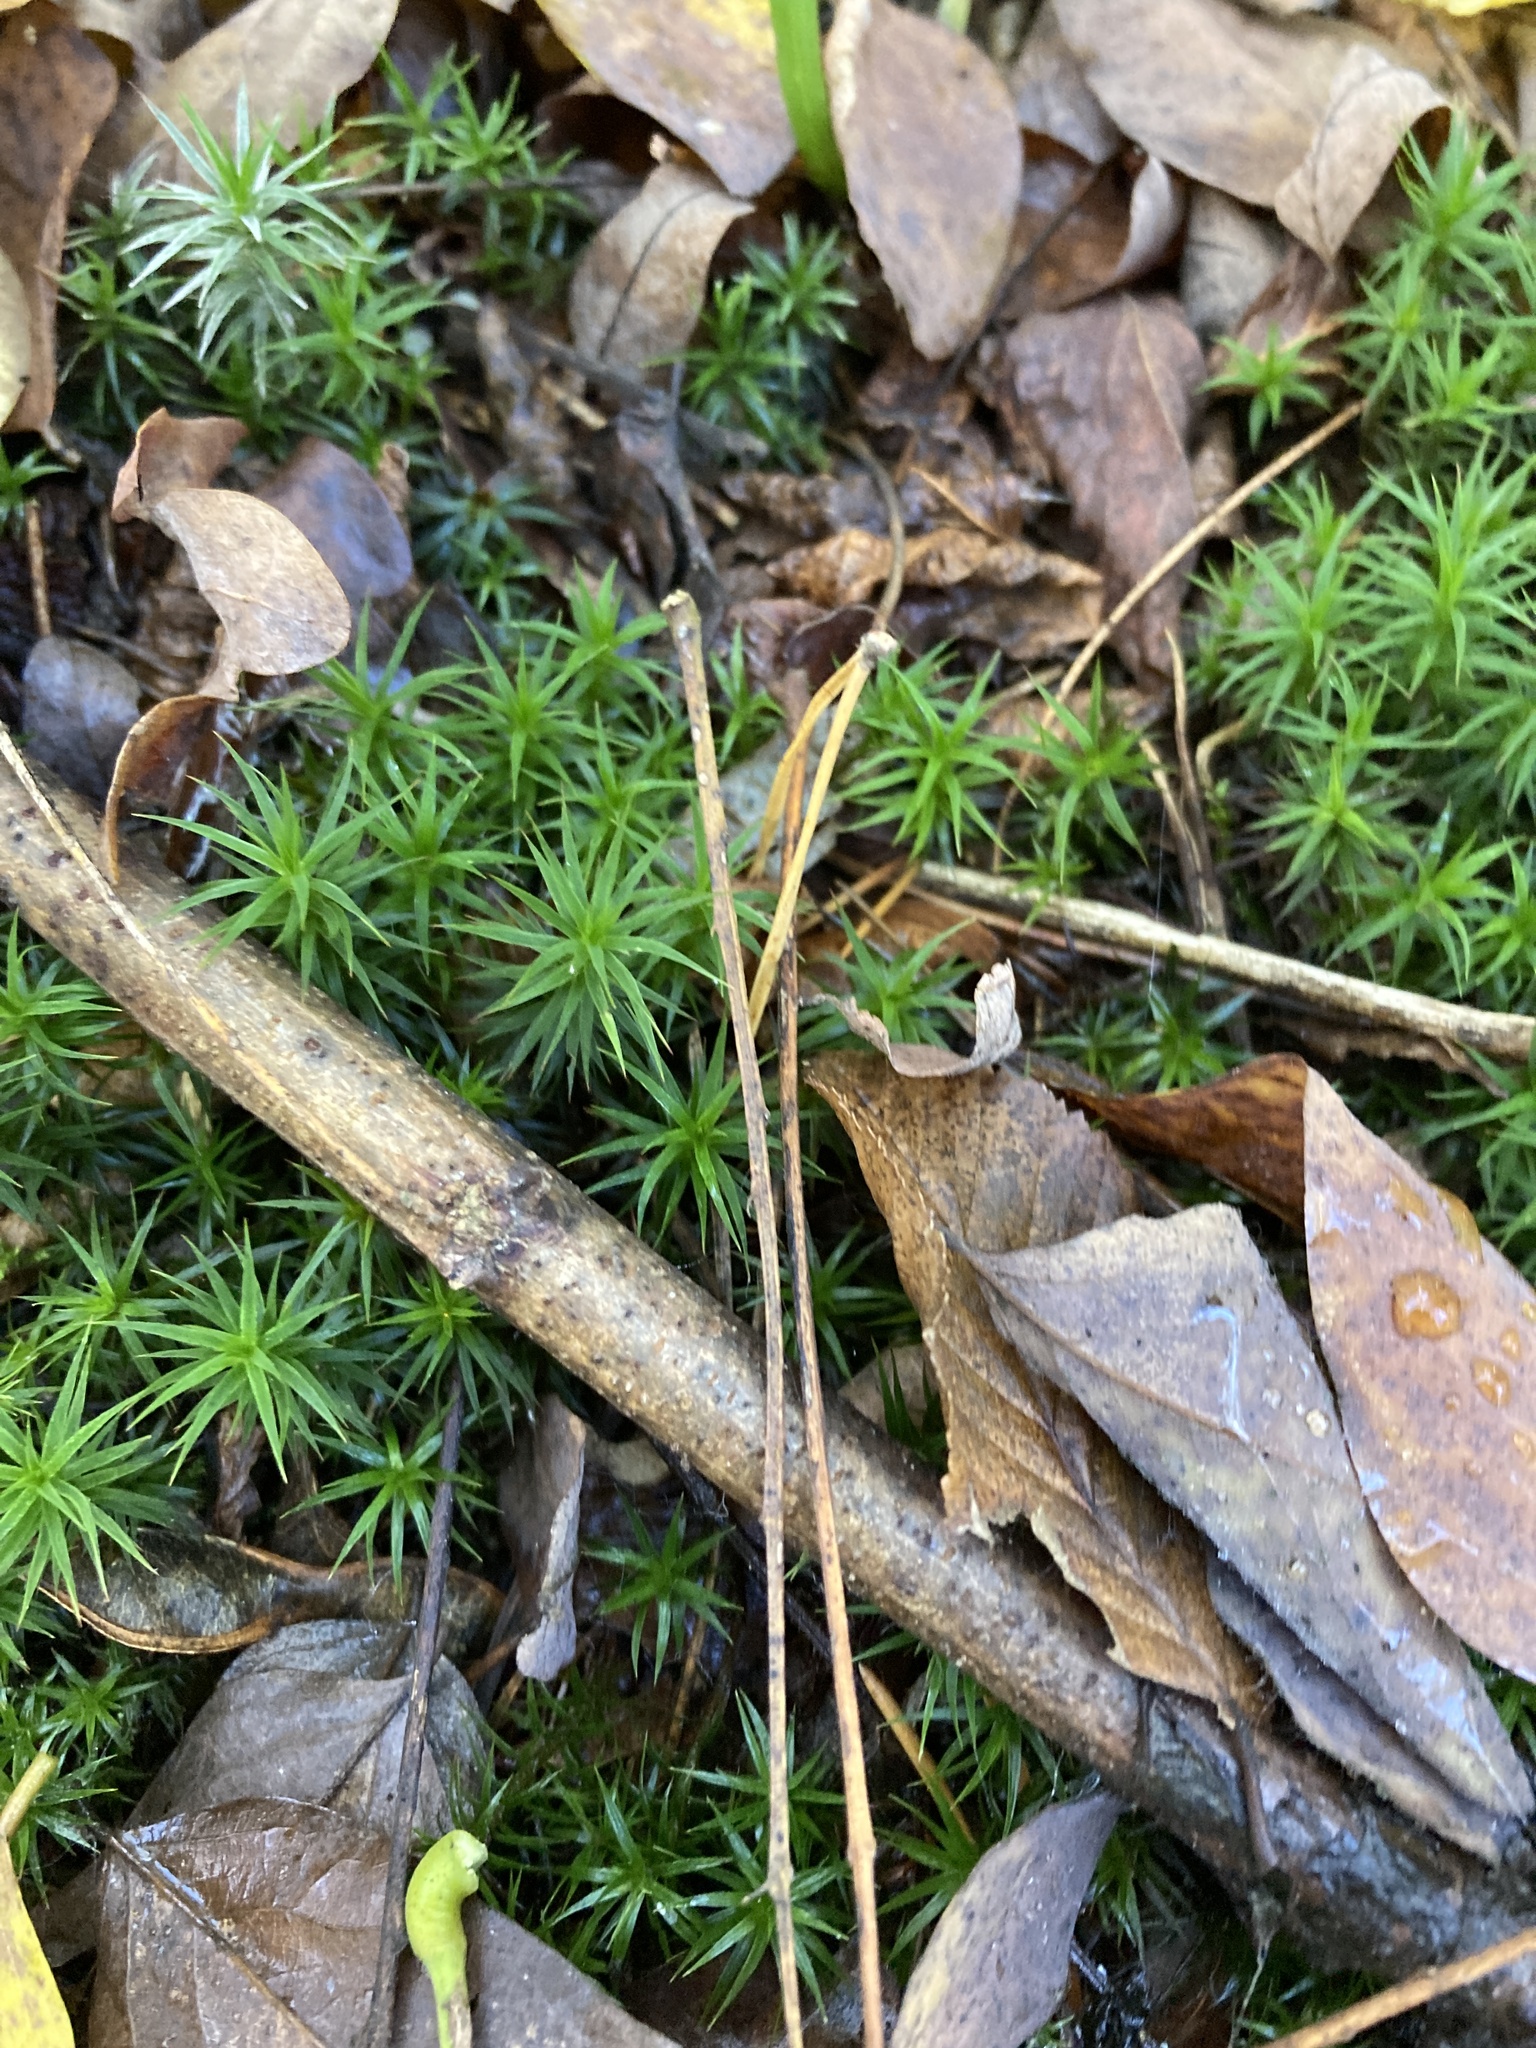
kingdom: Plantae
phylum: Bryophyta
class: Polytrichopsida
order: Polytrichales
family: Polytrichaceae
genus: Polytrichum
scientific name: Polytrichum formosum
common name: Bank haircap moss
